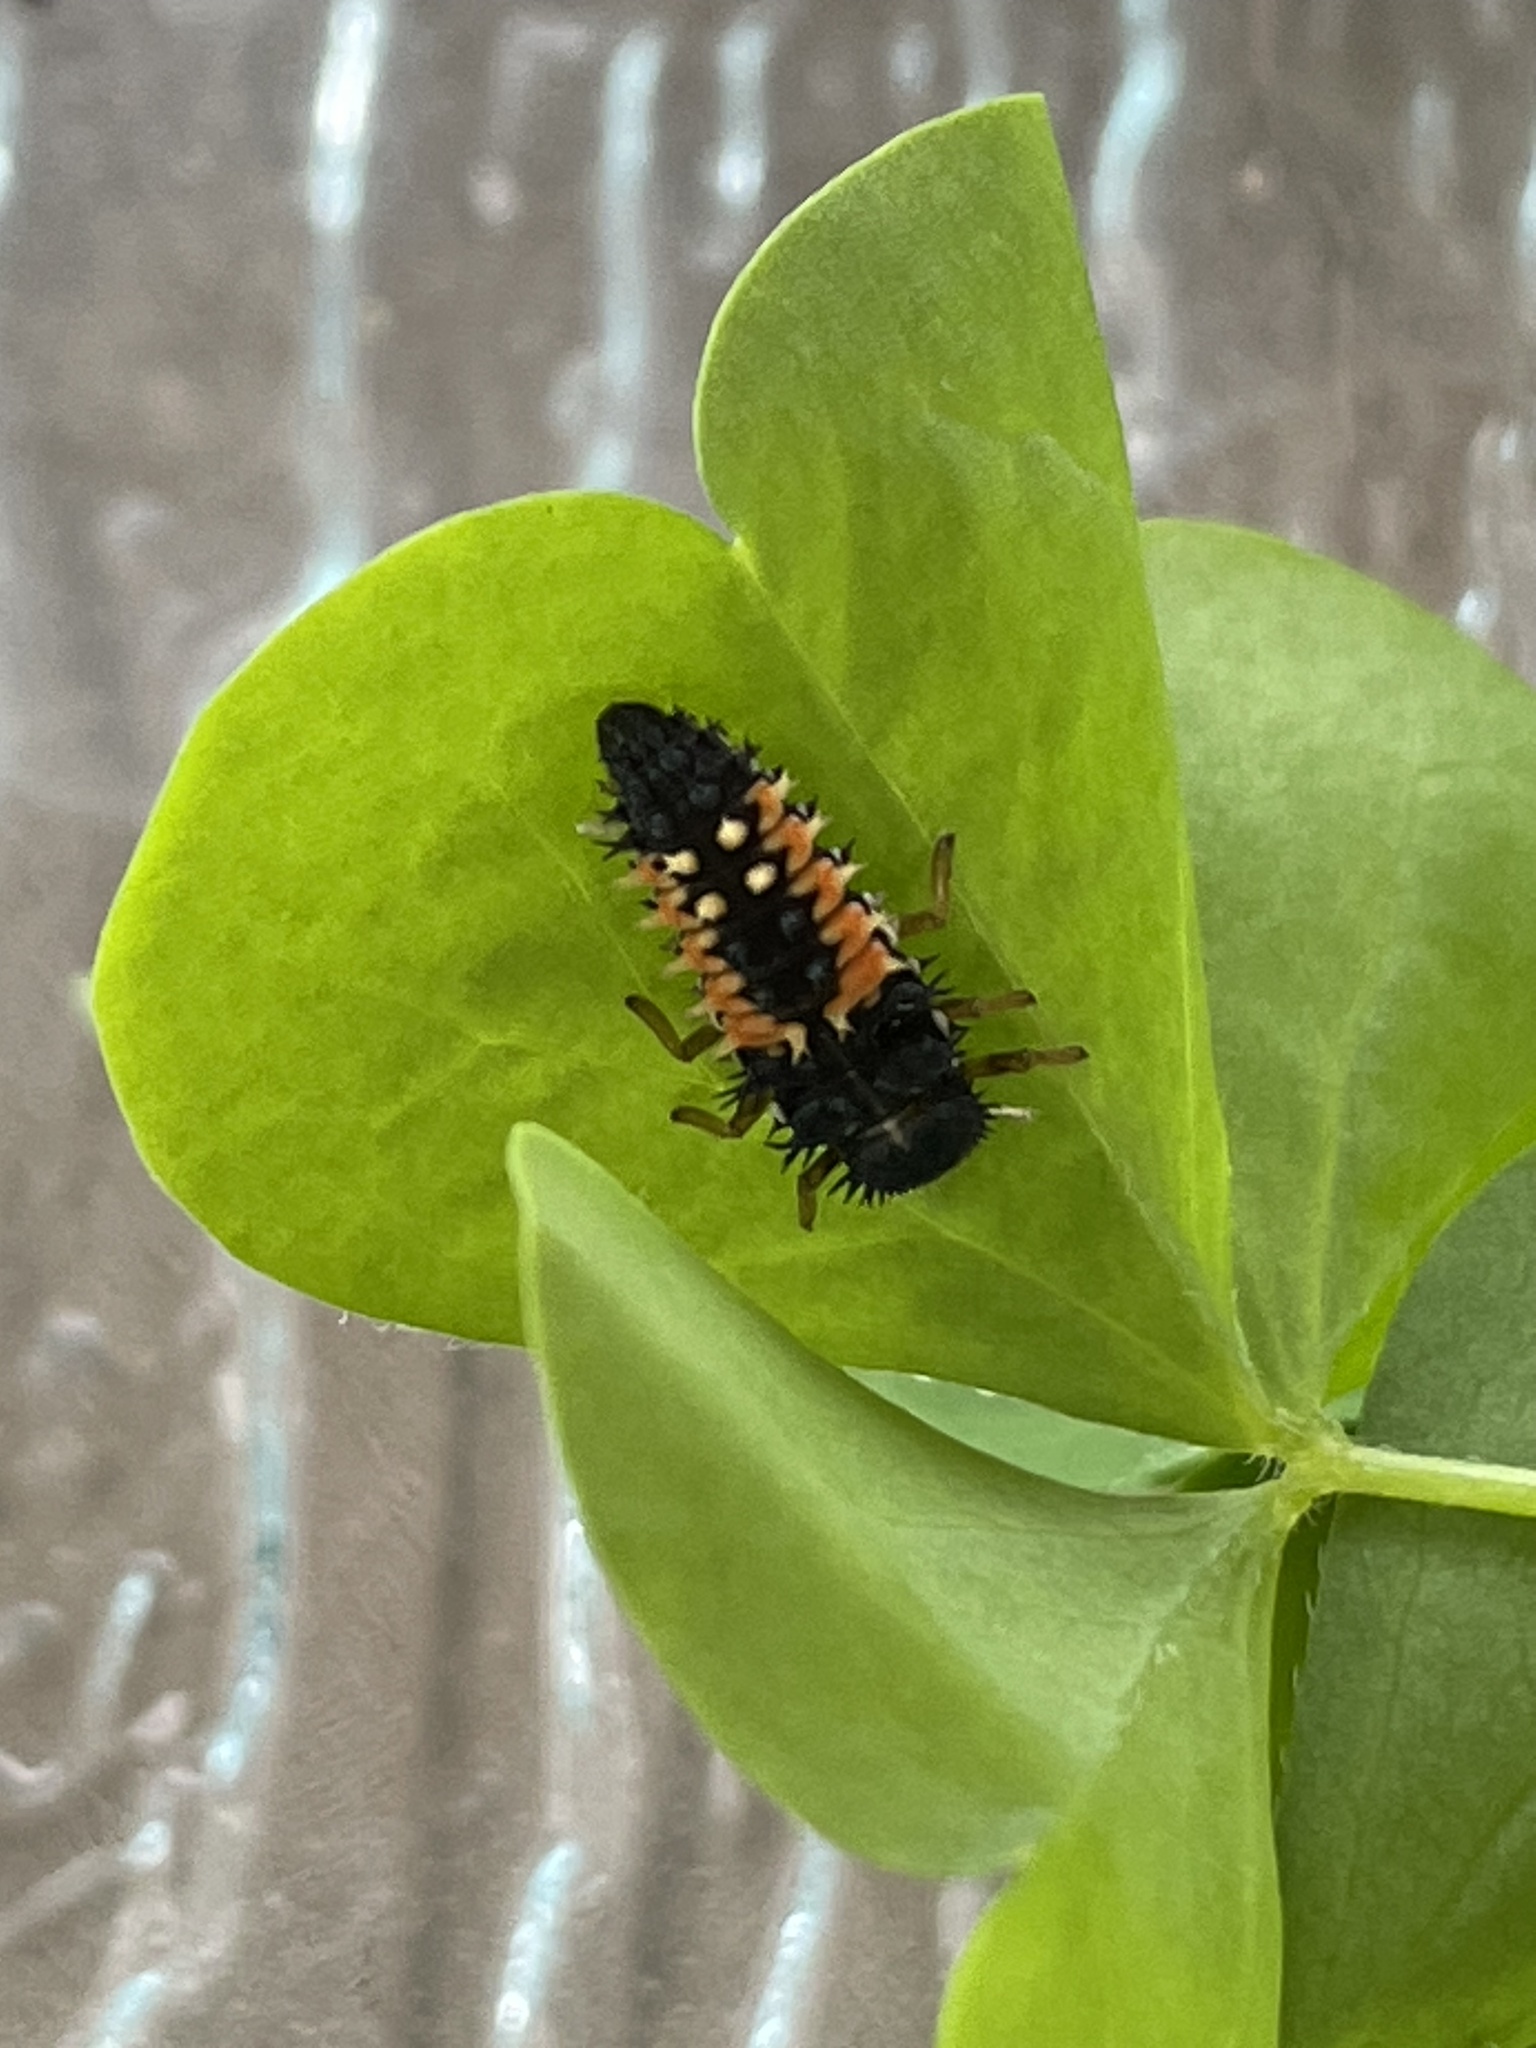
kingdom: Animalia
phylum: Arthropoda
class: Insecta
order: Coleoptera
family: Coccinellidae
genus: Harmonia
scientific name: Harmonia axyridis
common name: Harlequin ladybird
